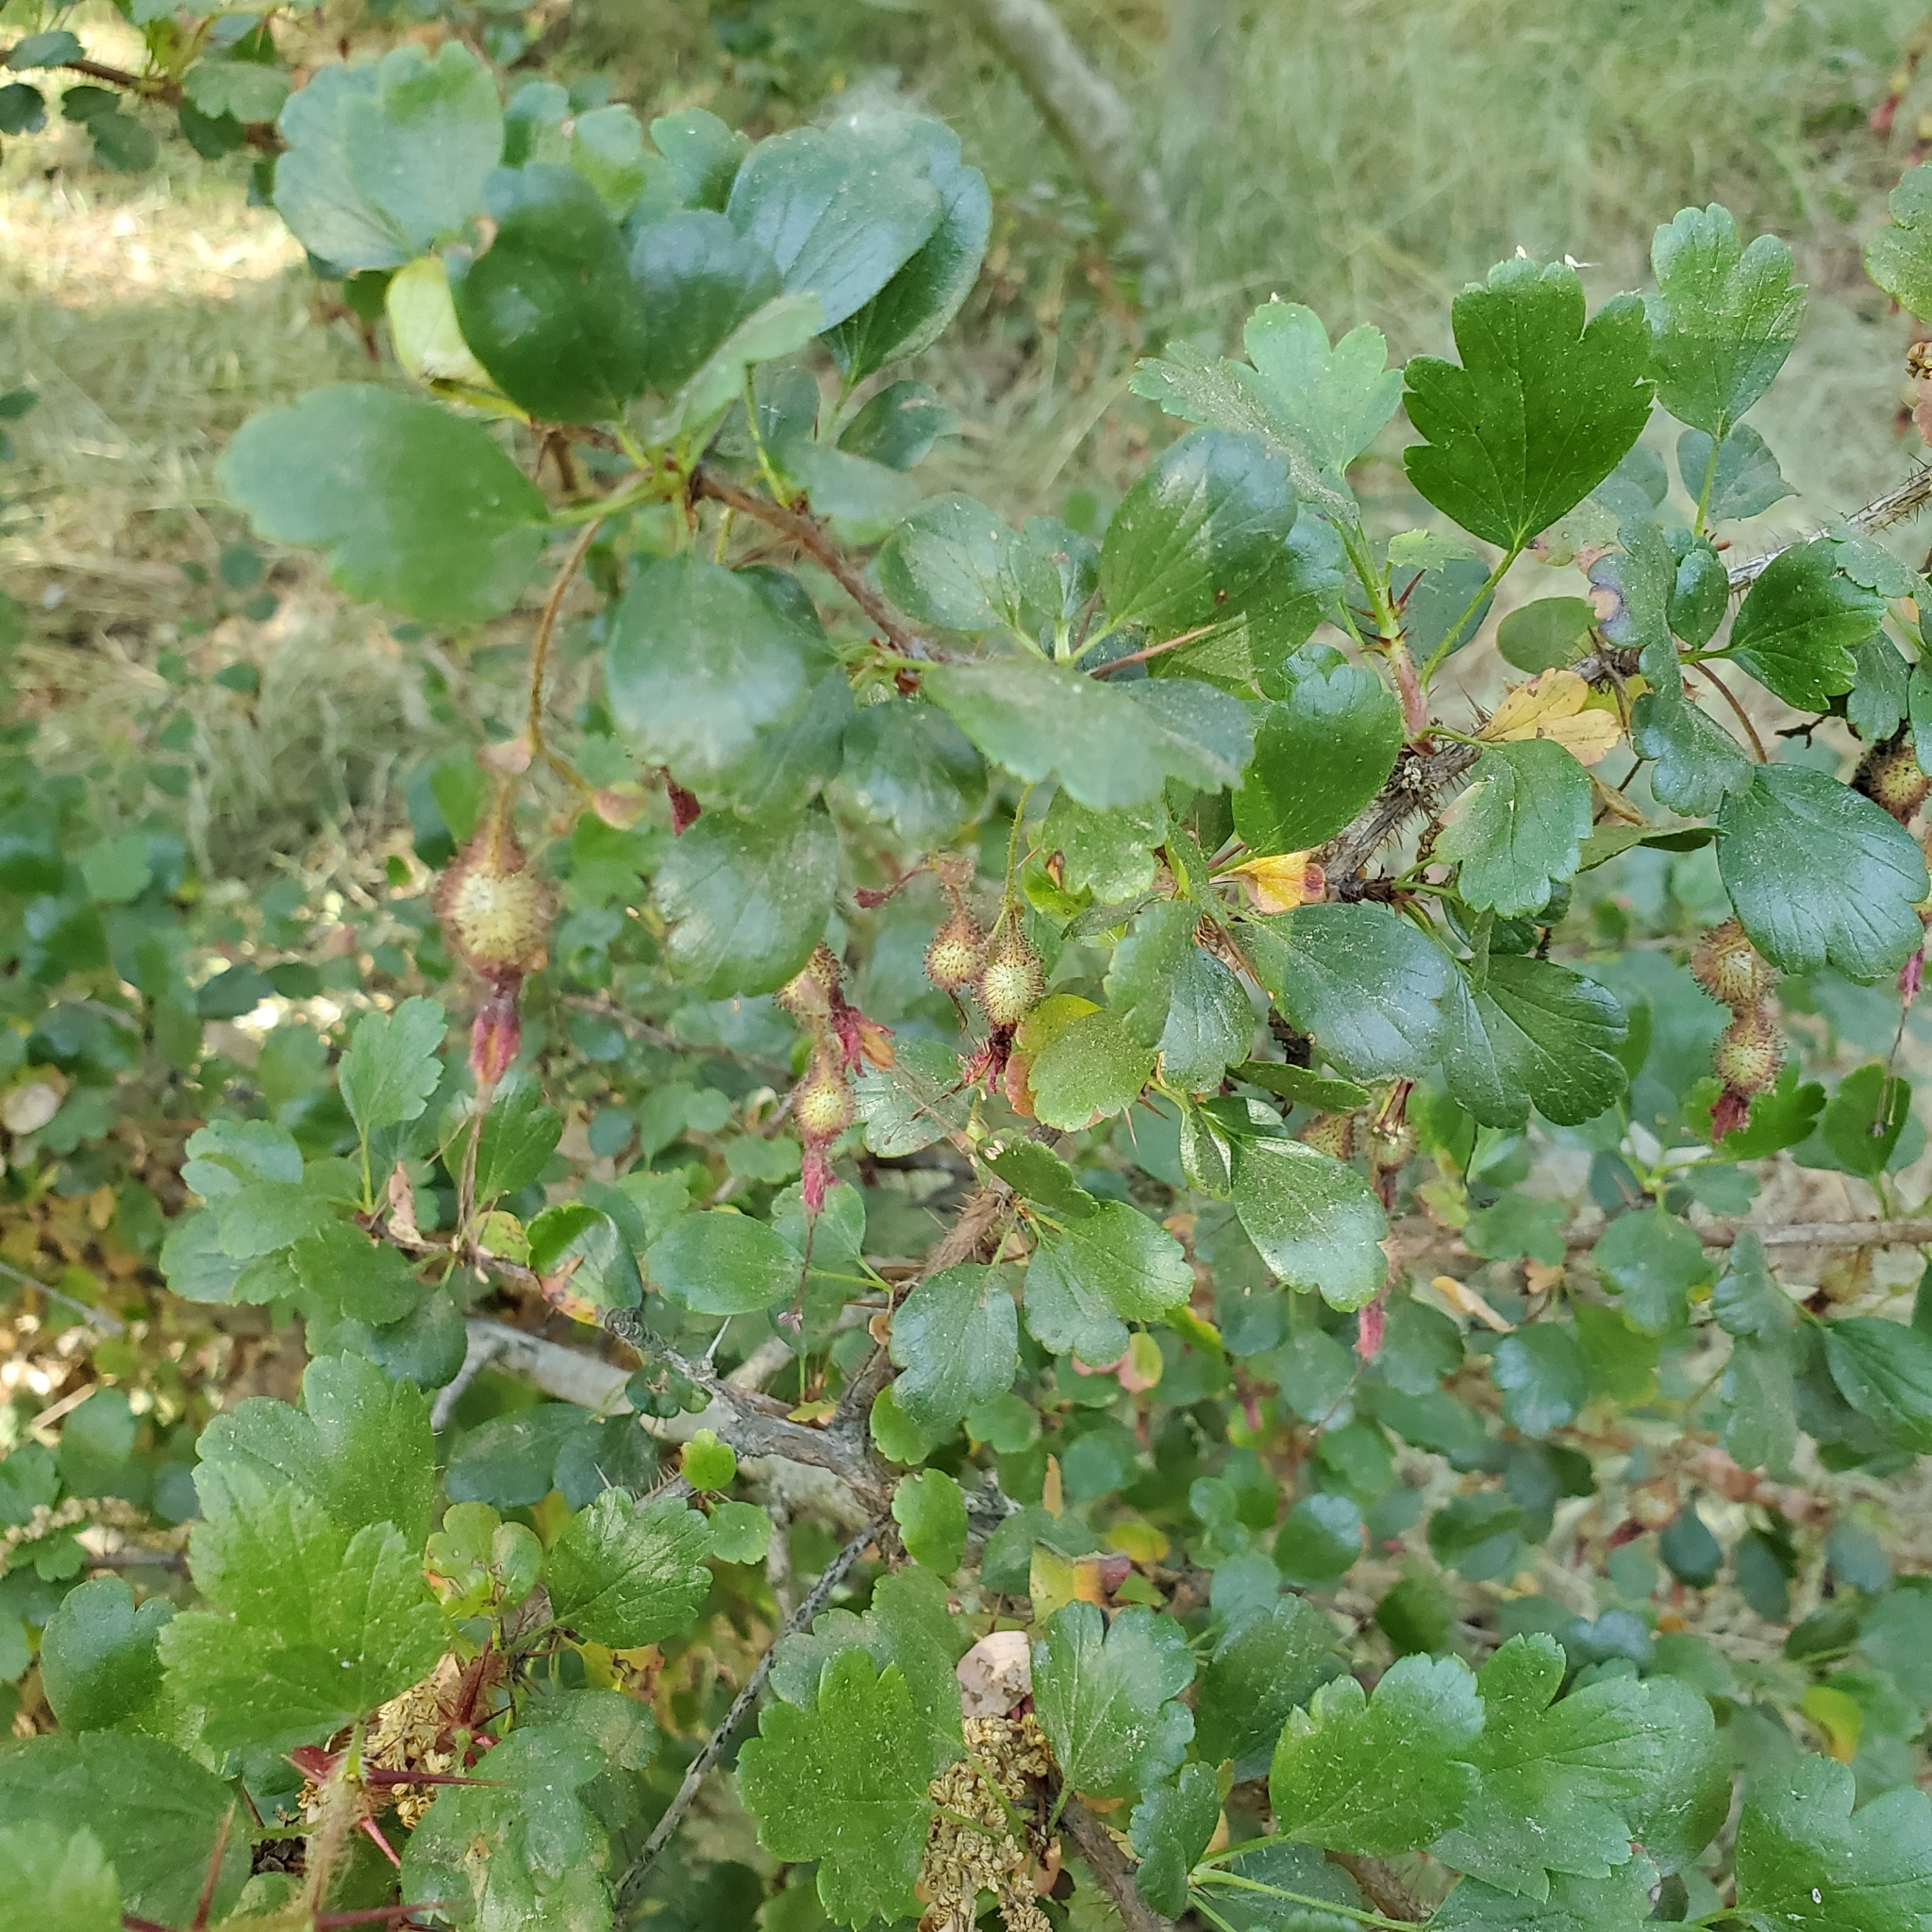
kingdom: Plantae
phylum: Tracheophyta
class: Magnoliopsida
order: Saxifragales
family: Grossulariaceae
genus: Ribes
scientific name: Ribes speciosum
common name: Fuchsia-flower gooseberry
